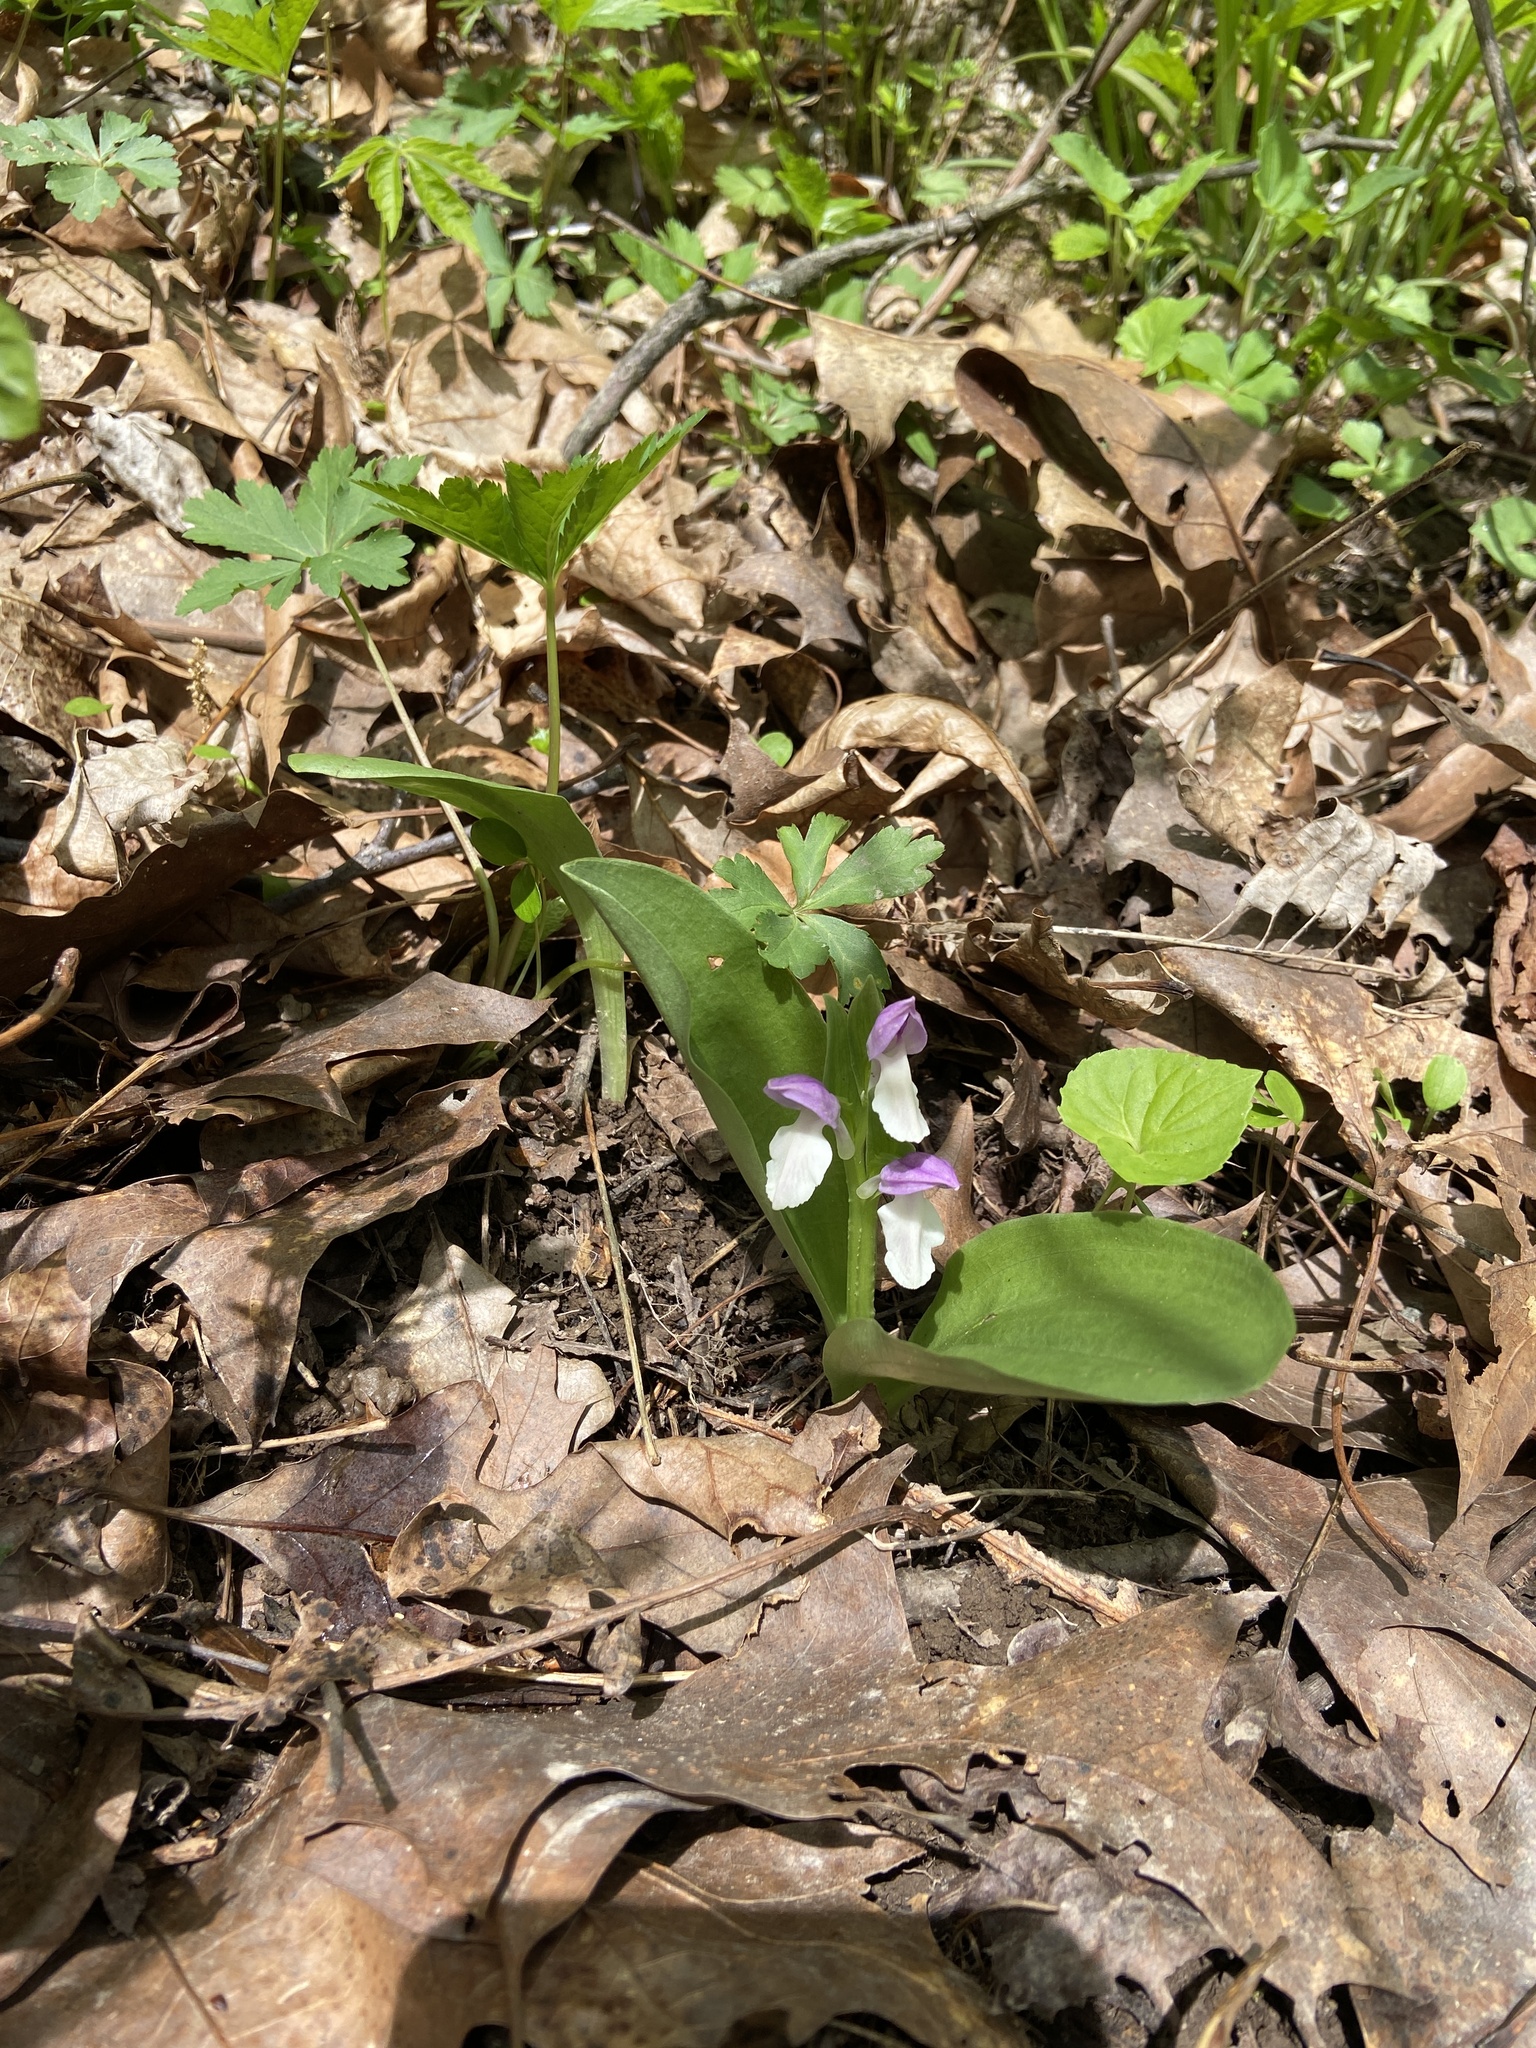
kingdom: Plantae
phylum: Tracheophyta
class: Liliopsida
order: Asparagales
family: Orchidaceae
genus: Galearis
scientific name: Galearis spectabilis
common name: Purple-hooded orchis
